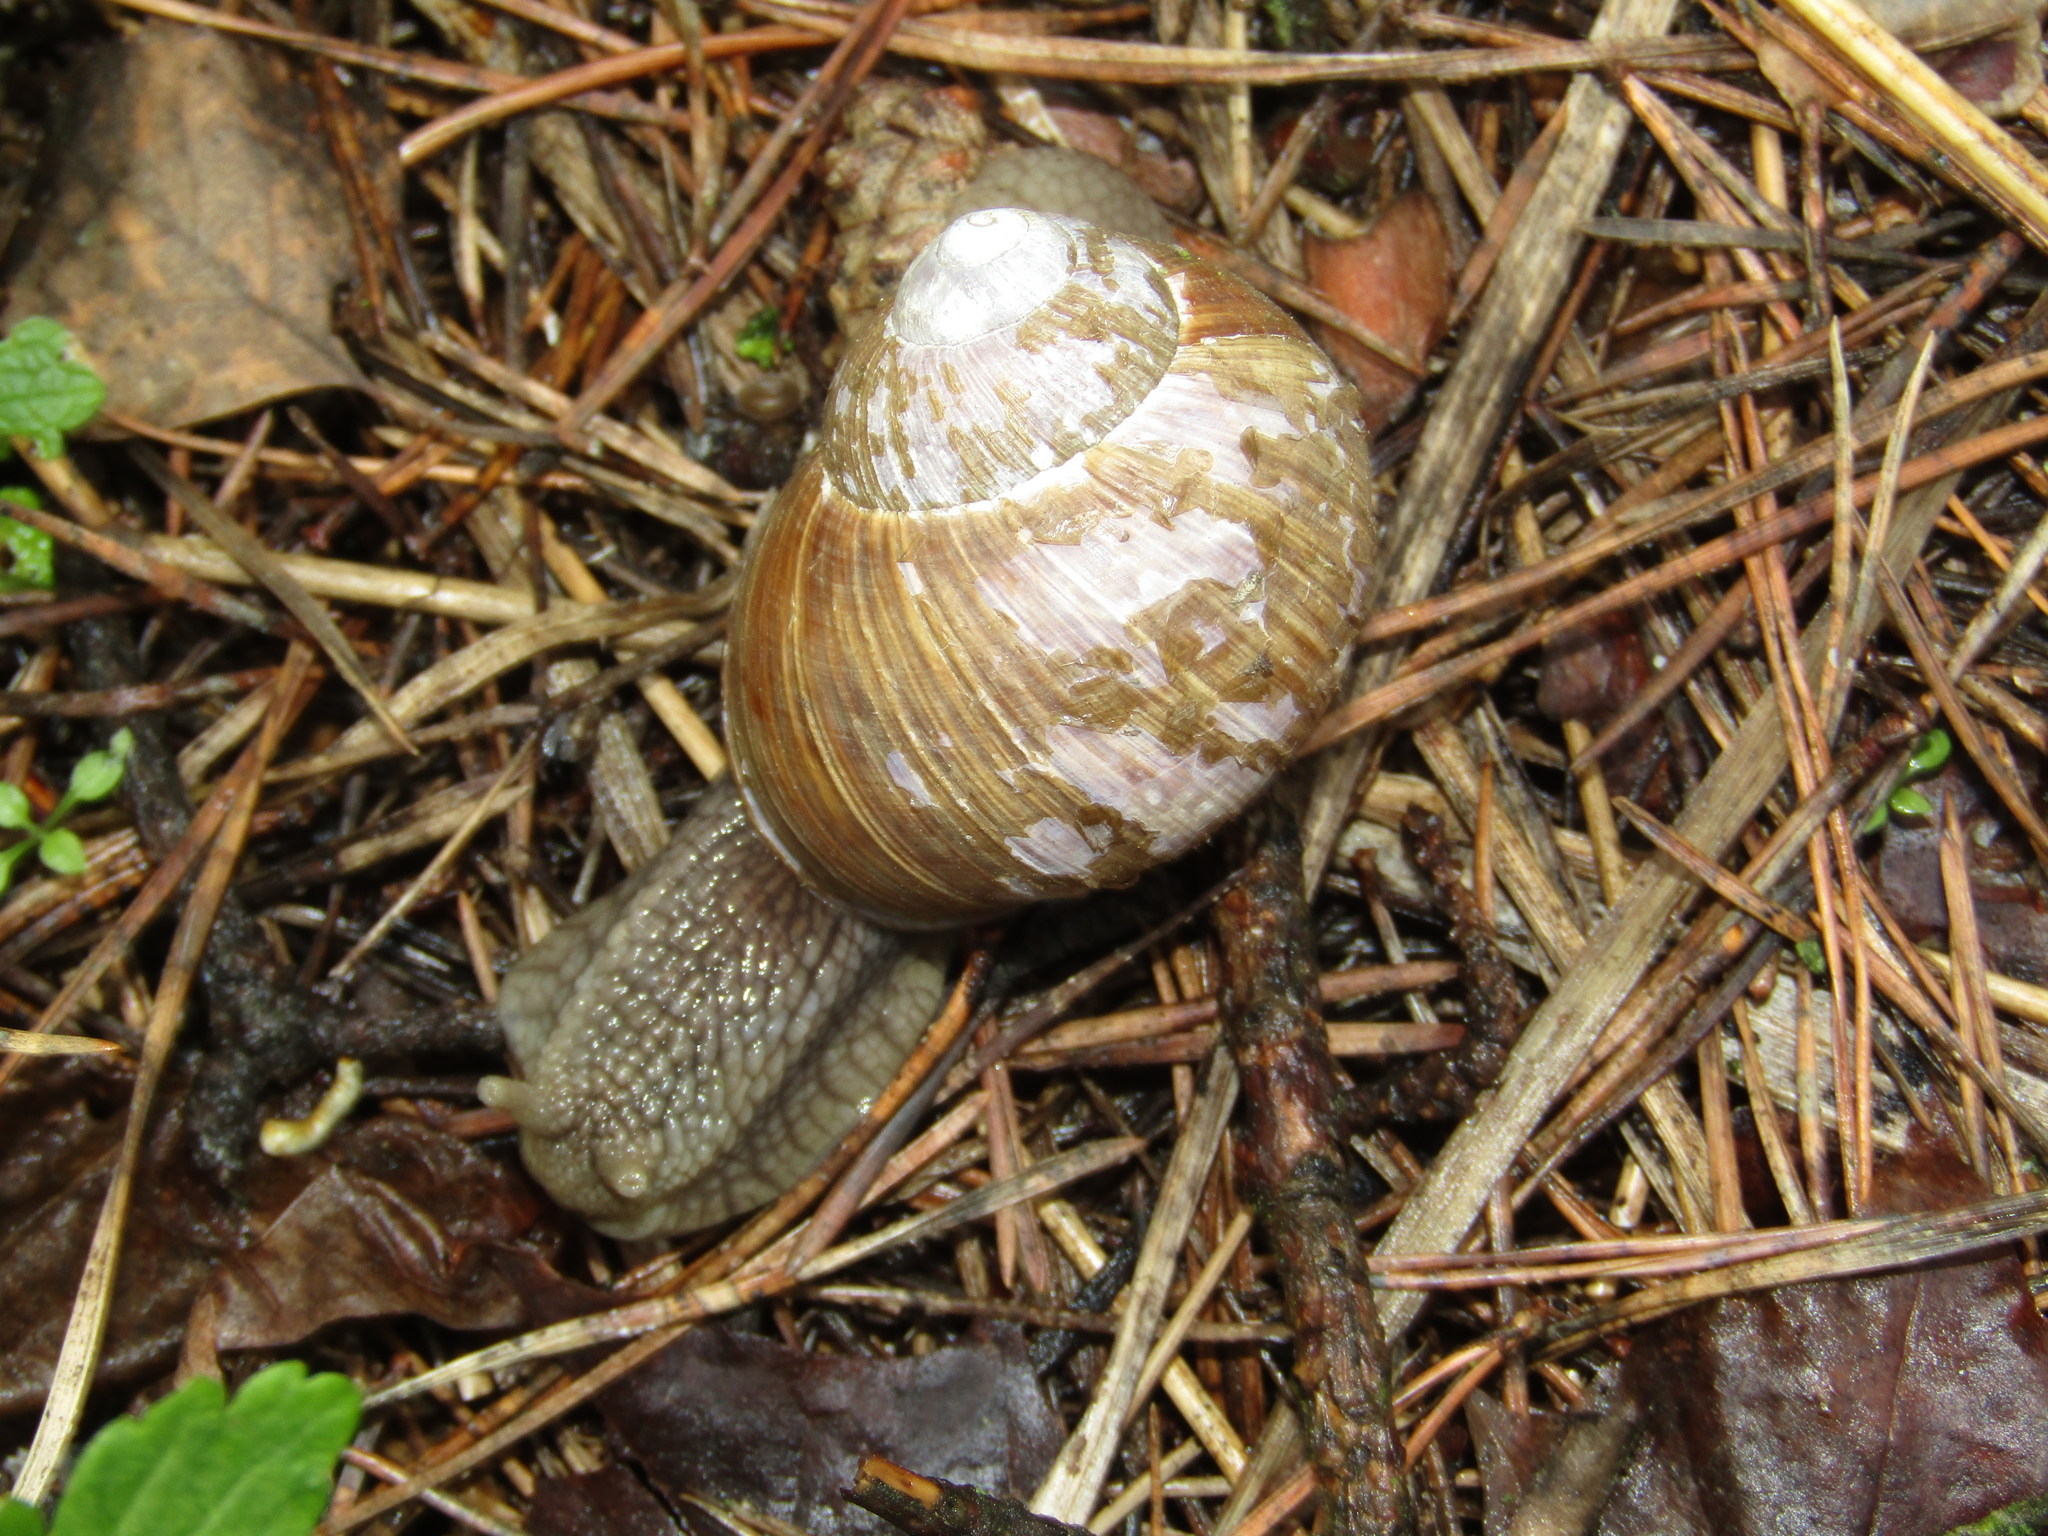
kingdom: Animalia
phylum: Mollusca
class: Gastropoda
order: Stylommatophora
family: Helicidae
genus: Helix
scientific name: Helix pomatia
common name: Roman snail
